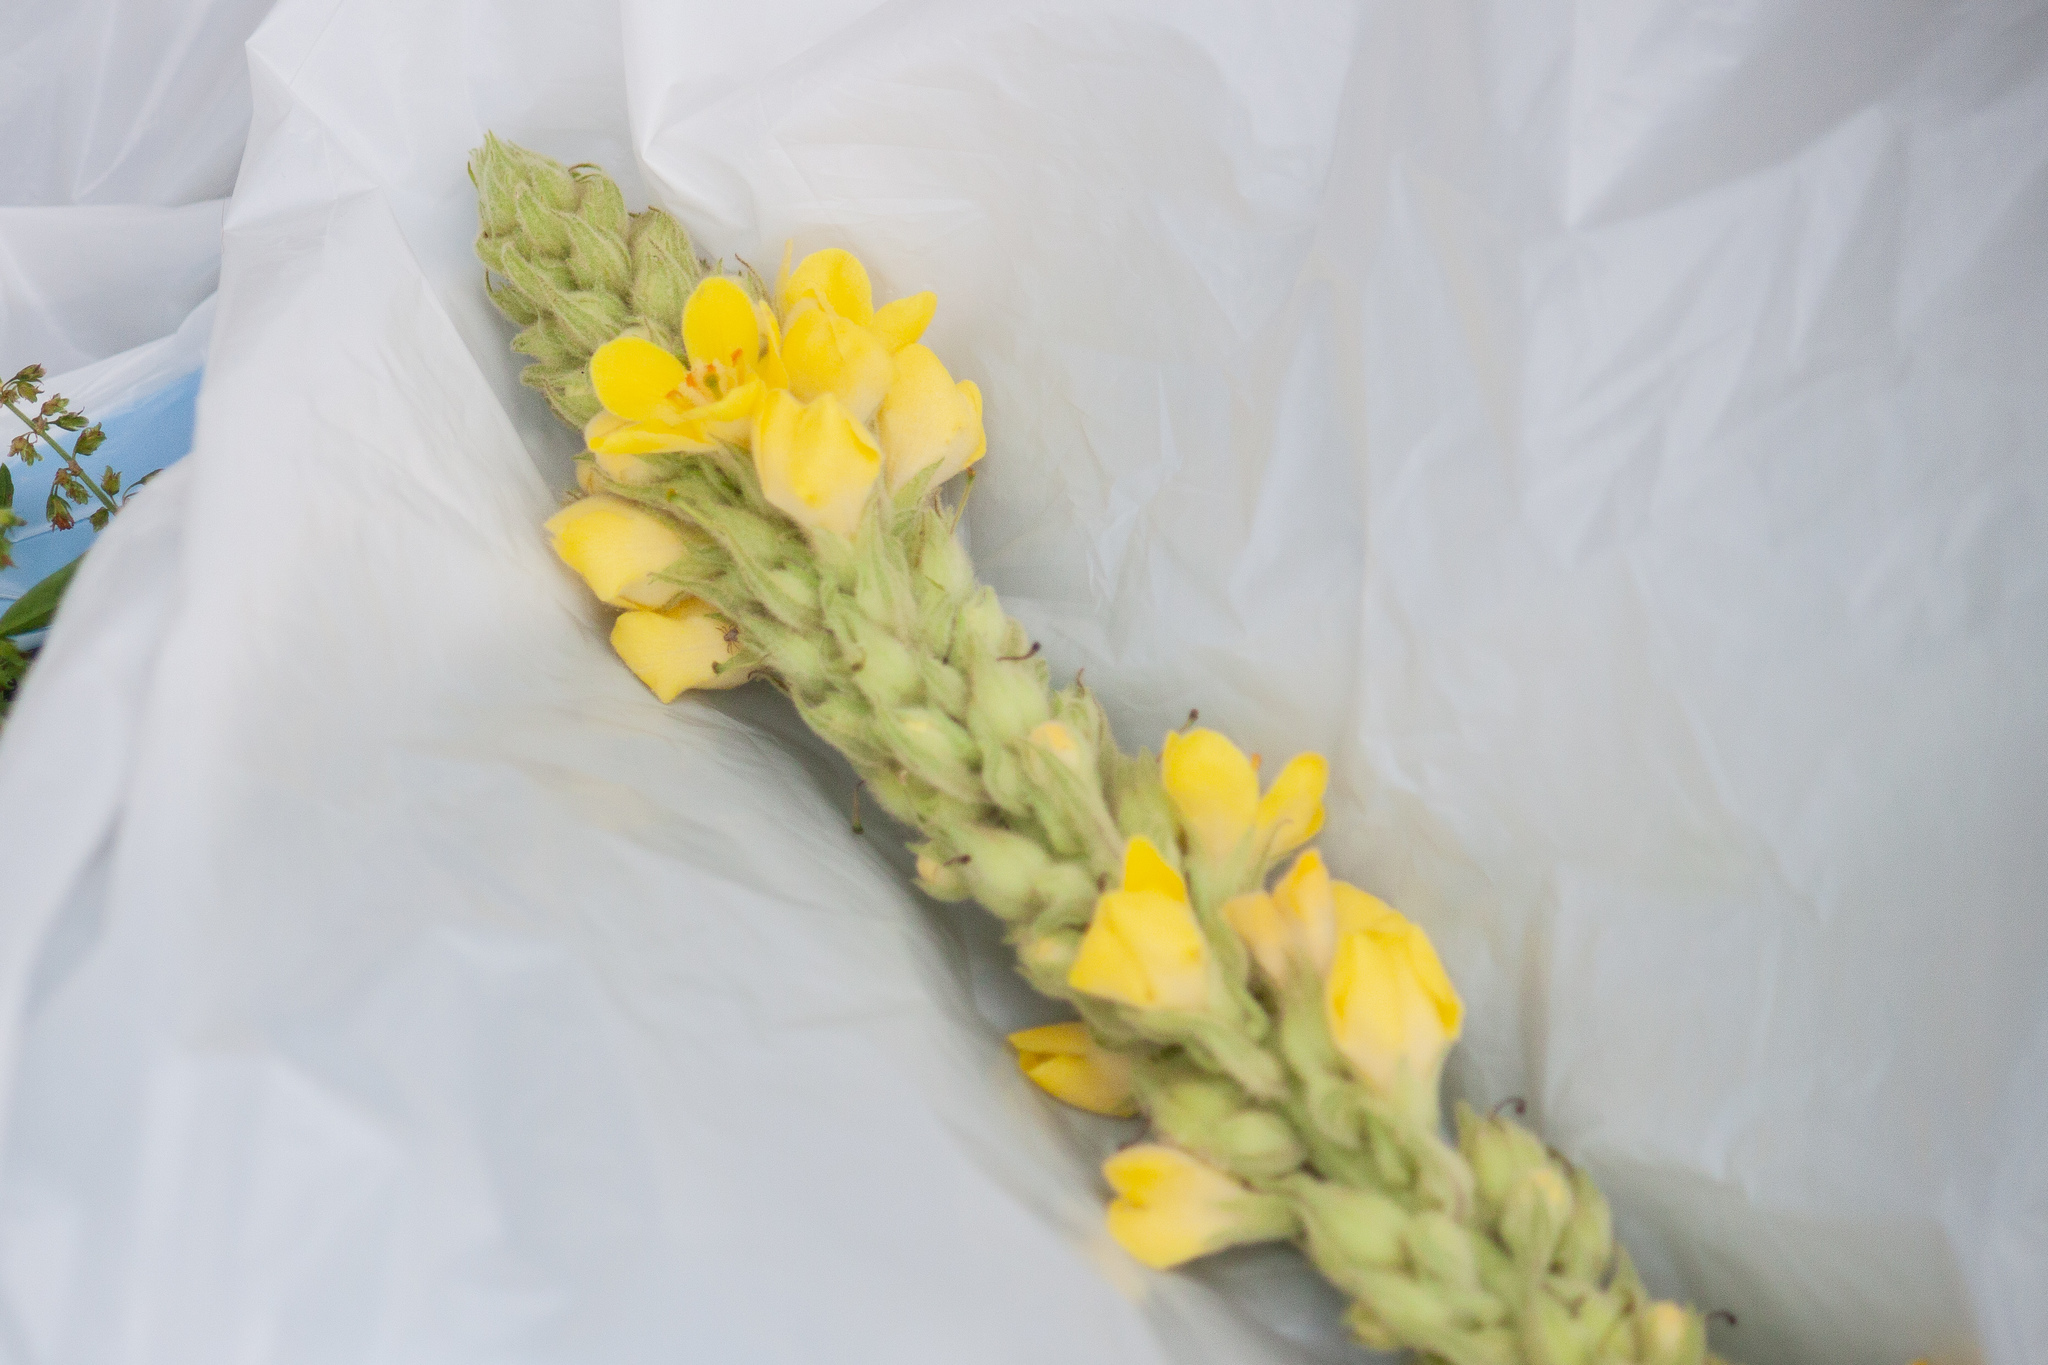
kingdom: Plantae
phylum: Tracheophyta
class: Magnoliopsida
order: Lamiales
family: Scrophulariaceae
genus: Verbascum
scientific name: Verbascum thapsus
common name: Common mullein
